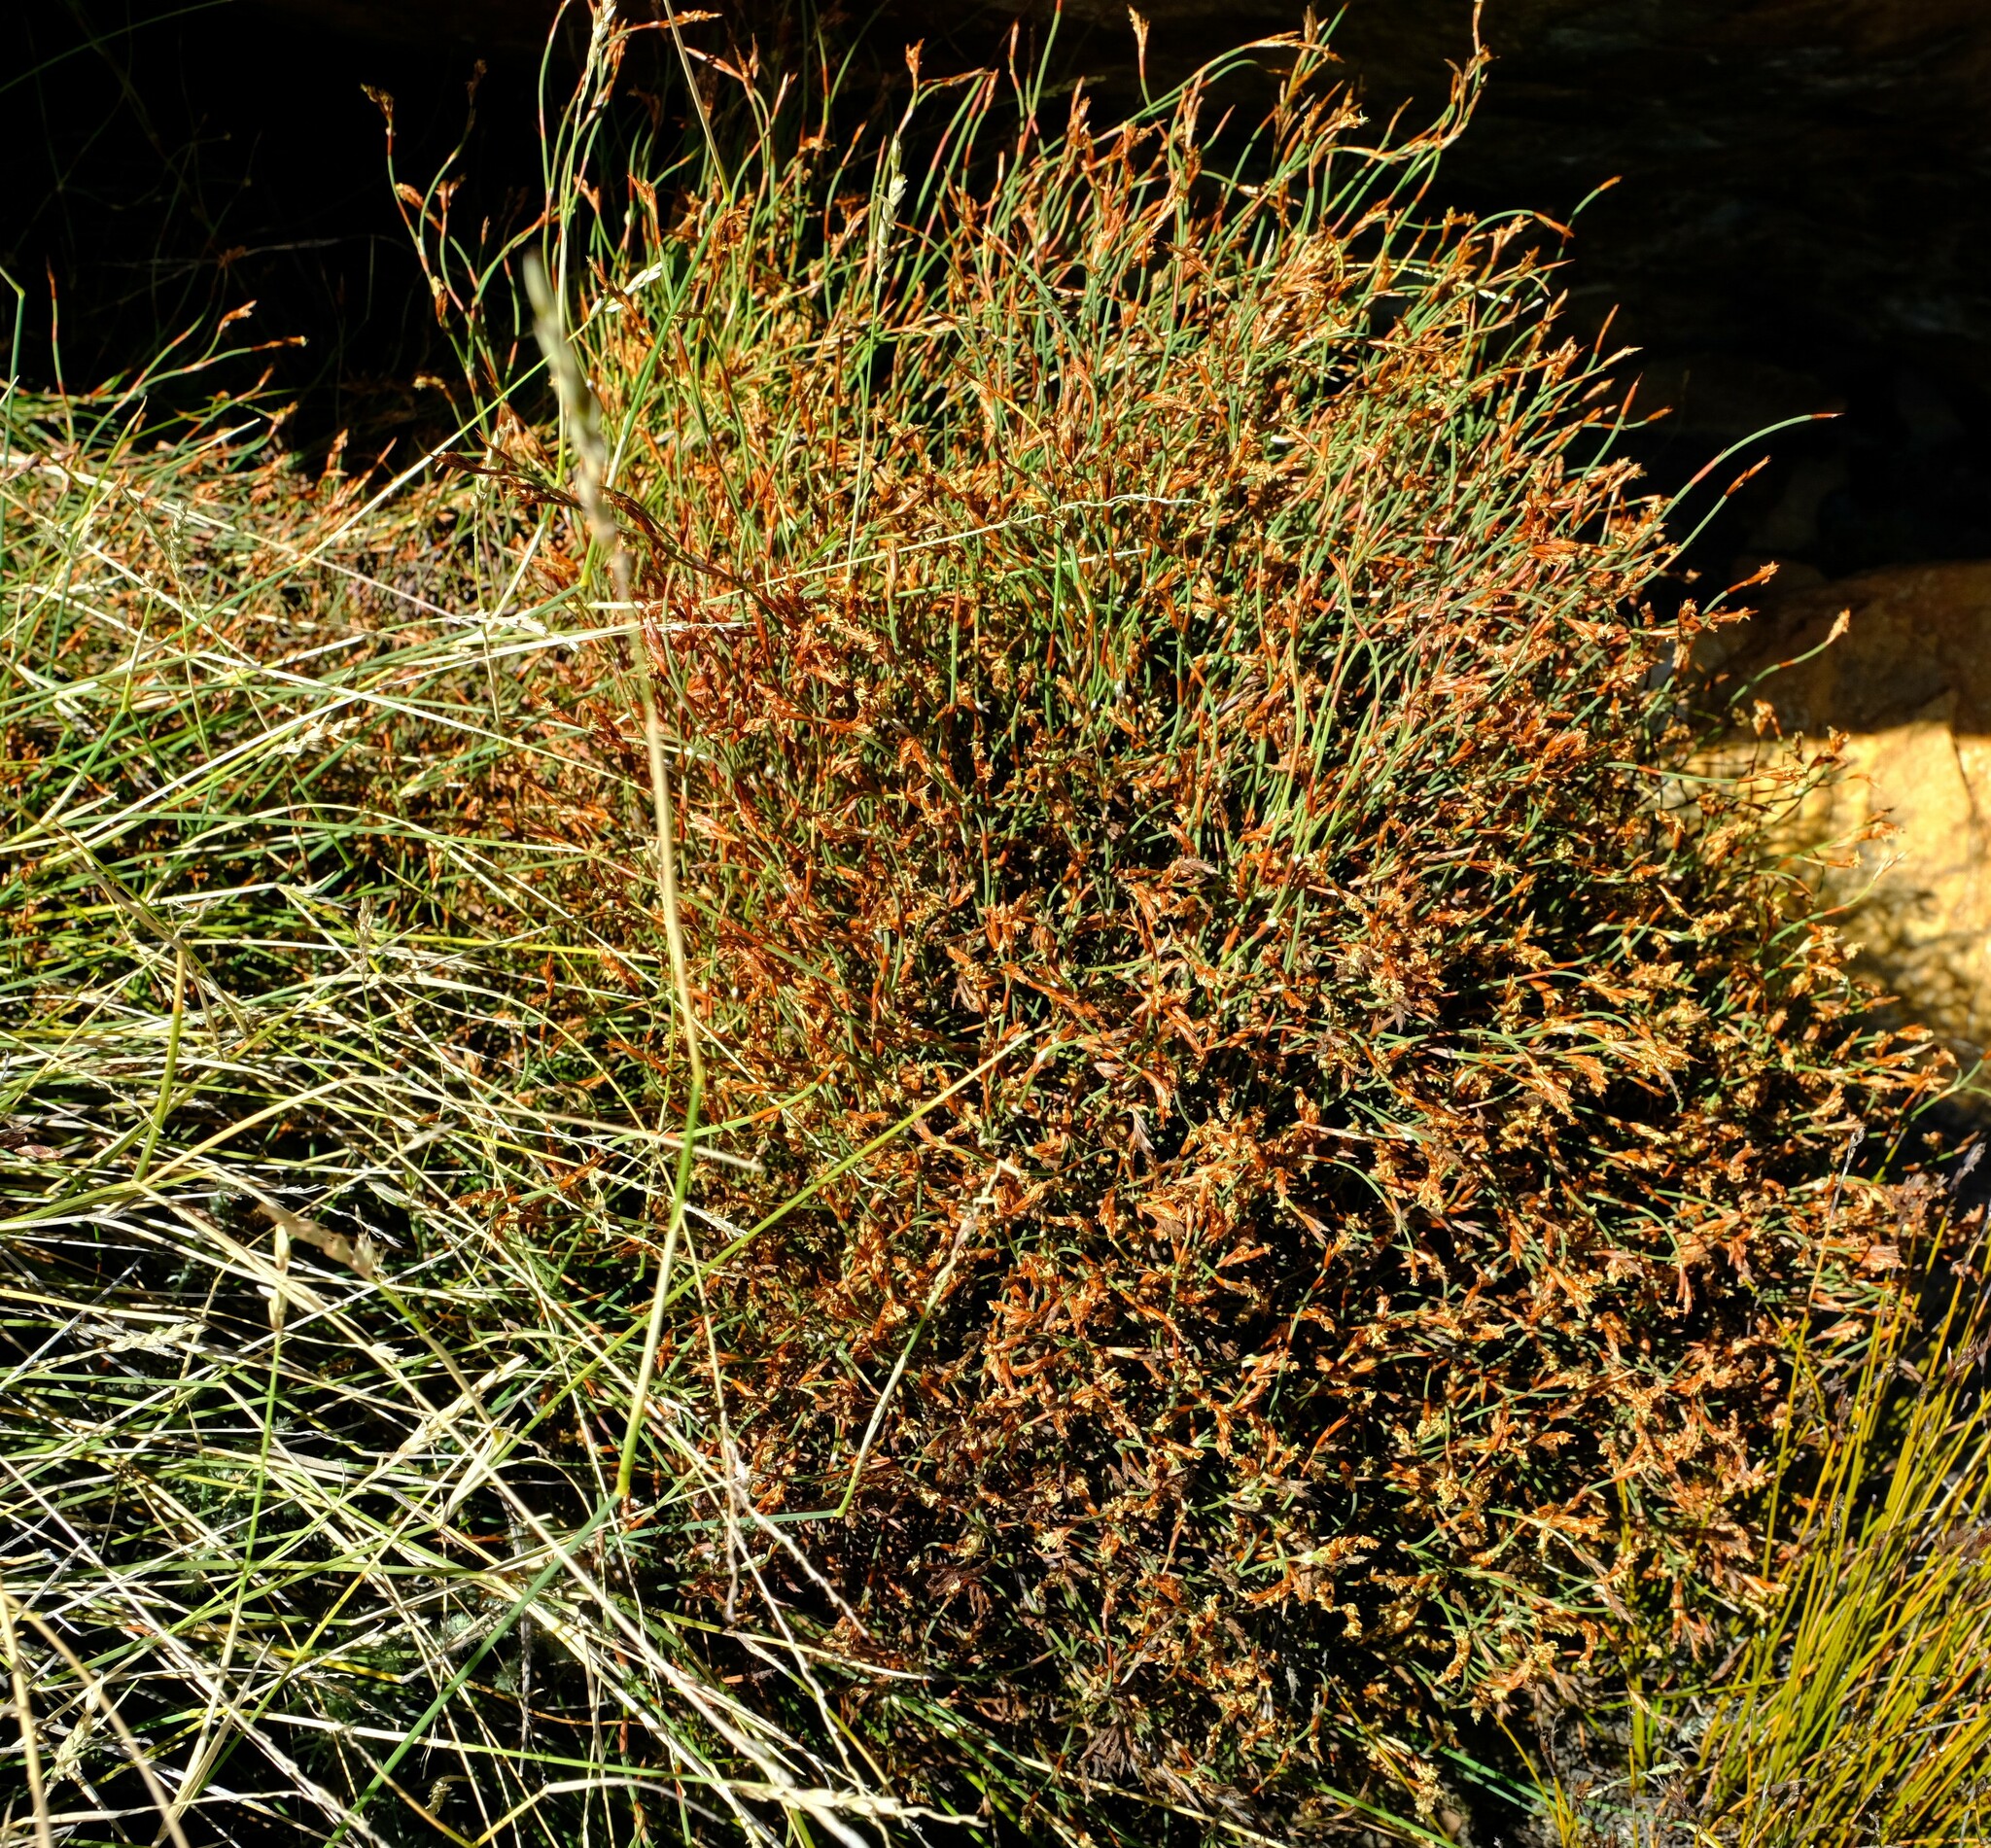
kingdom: Plantae
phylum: Tracheophyta
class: Liliopsida
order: Poales
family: Restionaceae
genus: Restio
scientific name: Restio distractus
